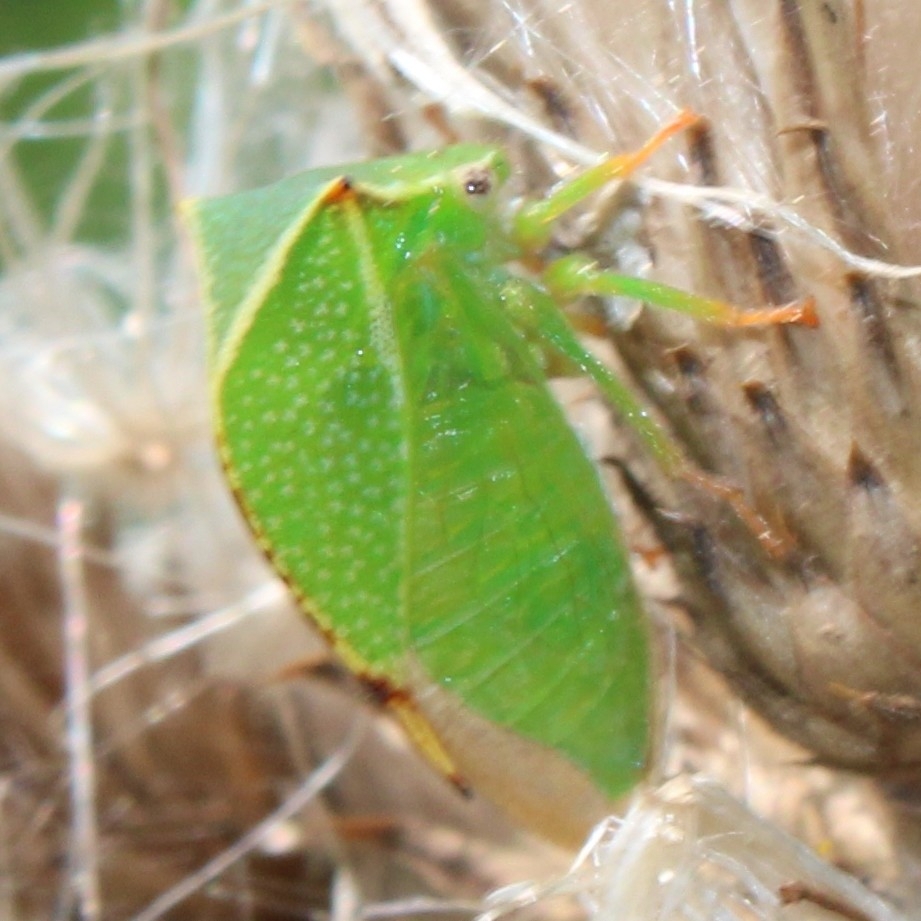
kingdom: Animalia
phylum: Arthropoda
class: Insecta
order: Hemiptera
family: Membracidae
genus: Stictocephala
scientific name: Stictocephala bisonia
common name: American buffalo treehopper
